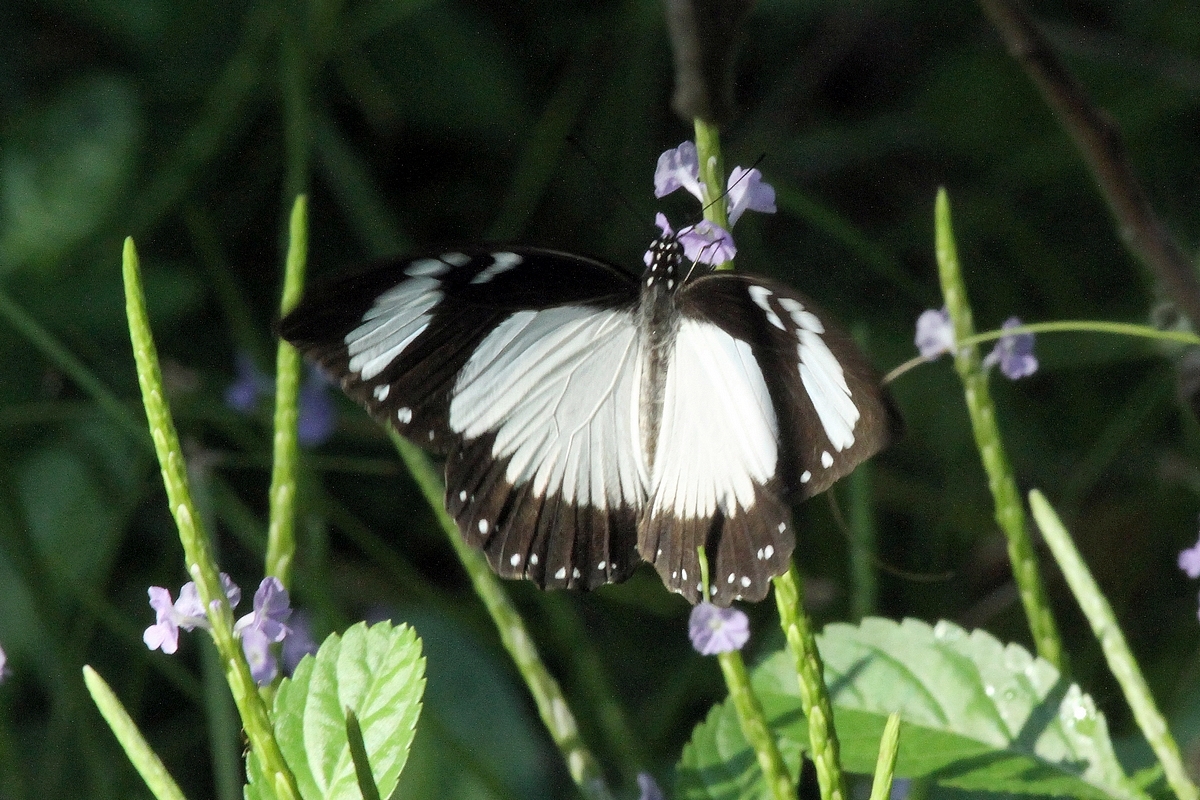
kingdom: Animalia
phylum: Arthropoda
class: Insecta
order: Lepidoptera
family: Papilionidae
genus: Papilio
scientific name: Papilio dardanus
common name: Flying handkerchief
